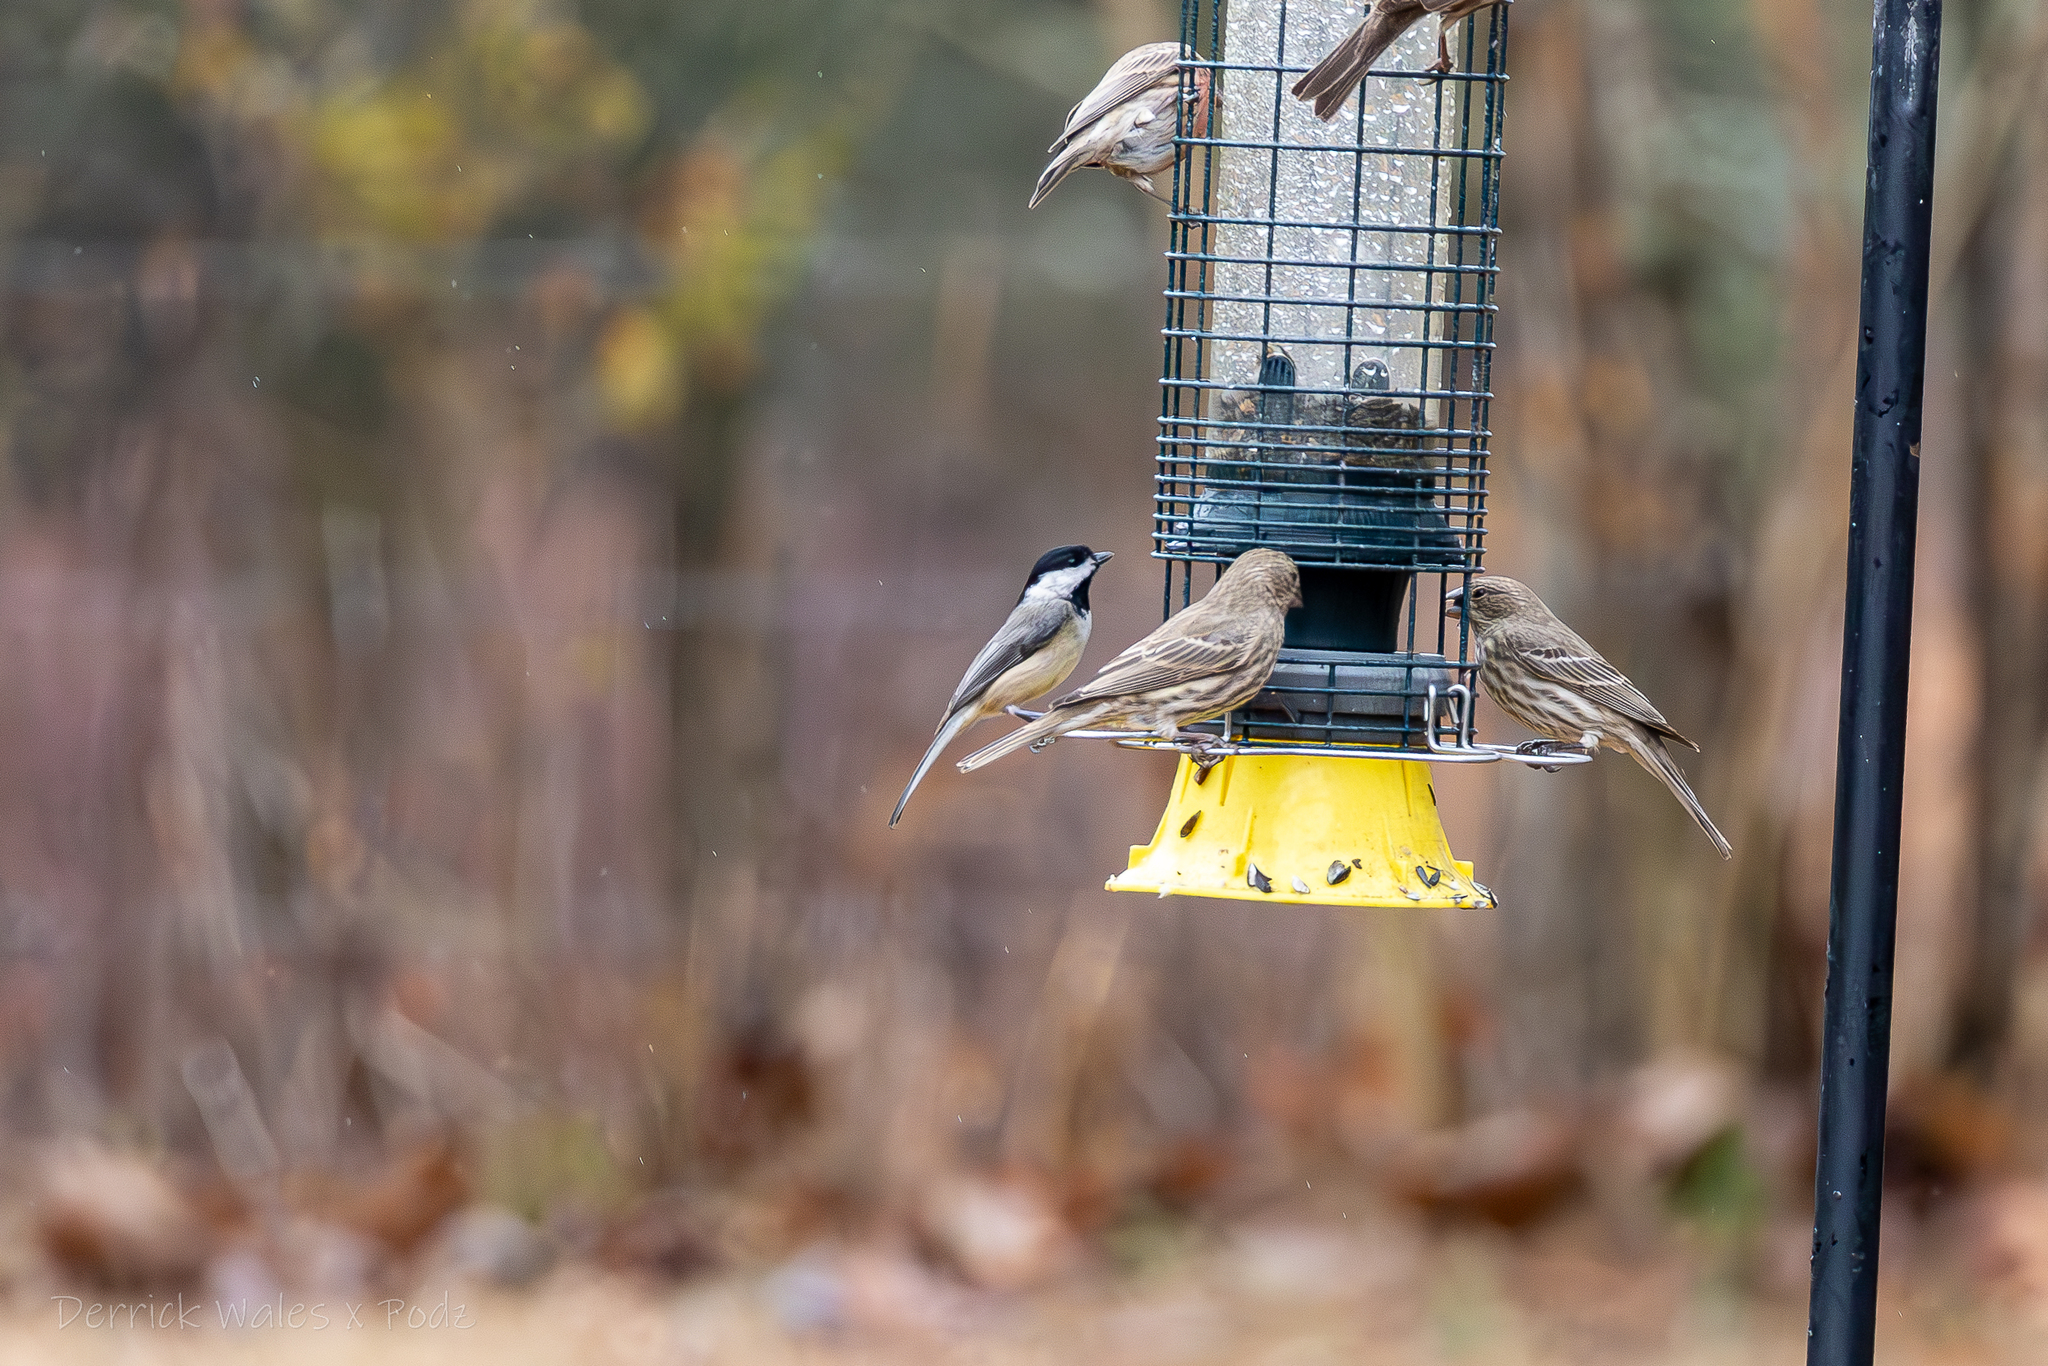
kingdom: Animalia
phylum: Chordata
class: Aves
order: Passeriformes
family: Fringillidae
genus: Haemorhous
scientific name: Haemorhous mexicanus
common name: House finch
